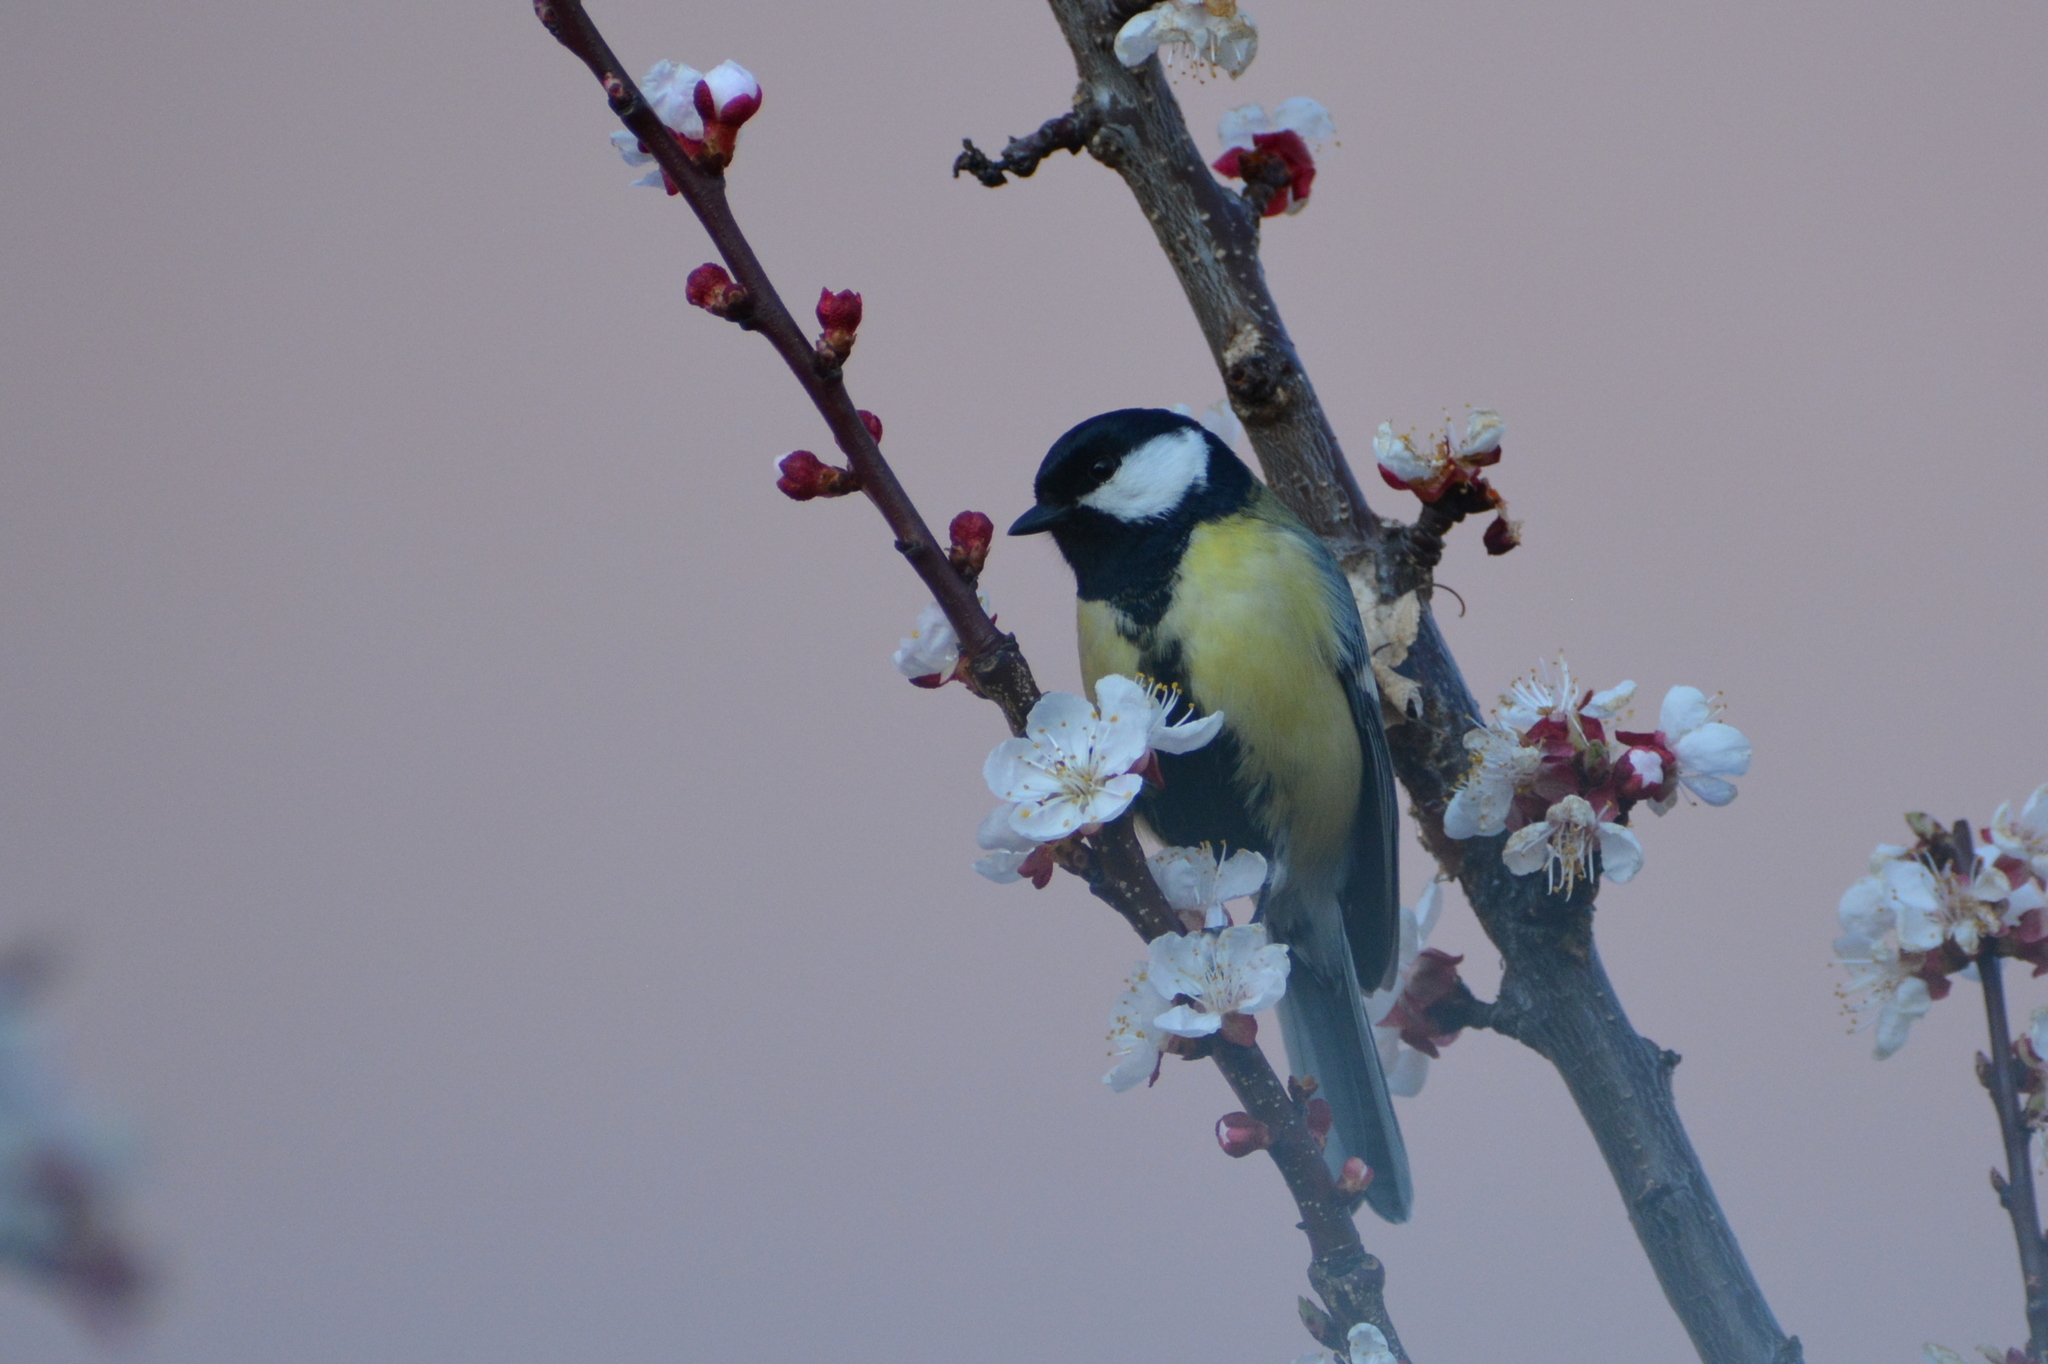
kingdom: Animalia
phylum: Chordata
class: Aves
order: Passeriformes
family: Paridae
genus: Parus
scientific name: Parus major
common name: Great tit
